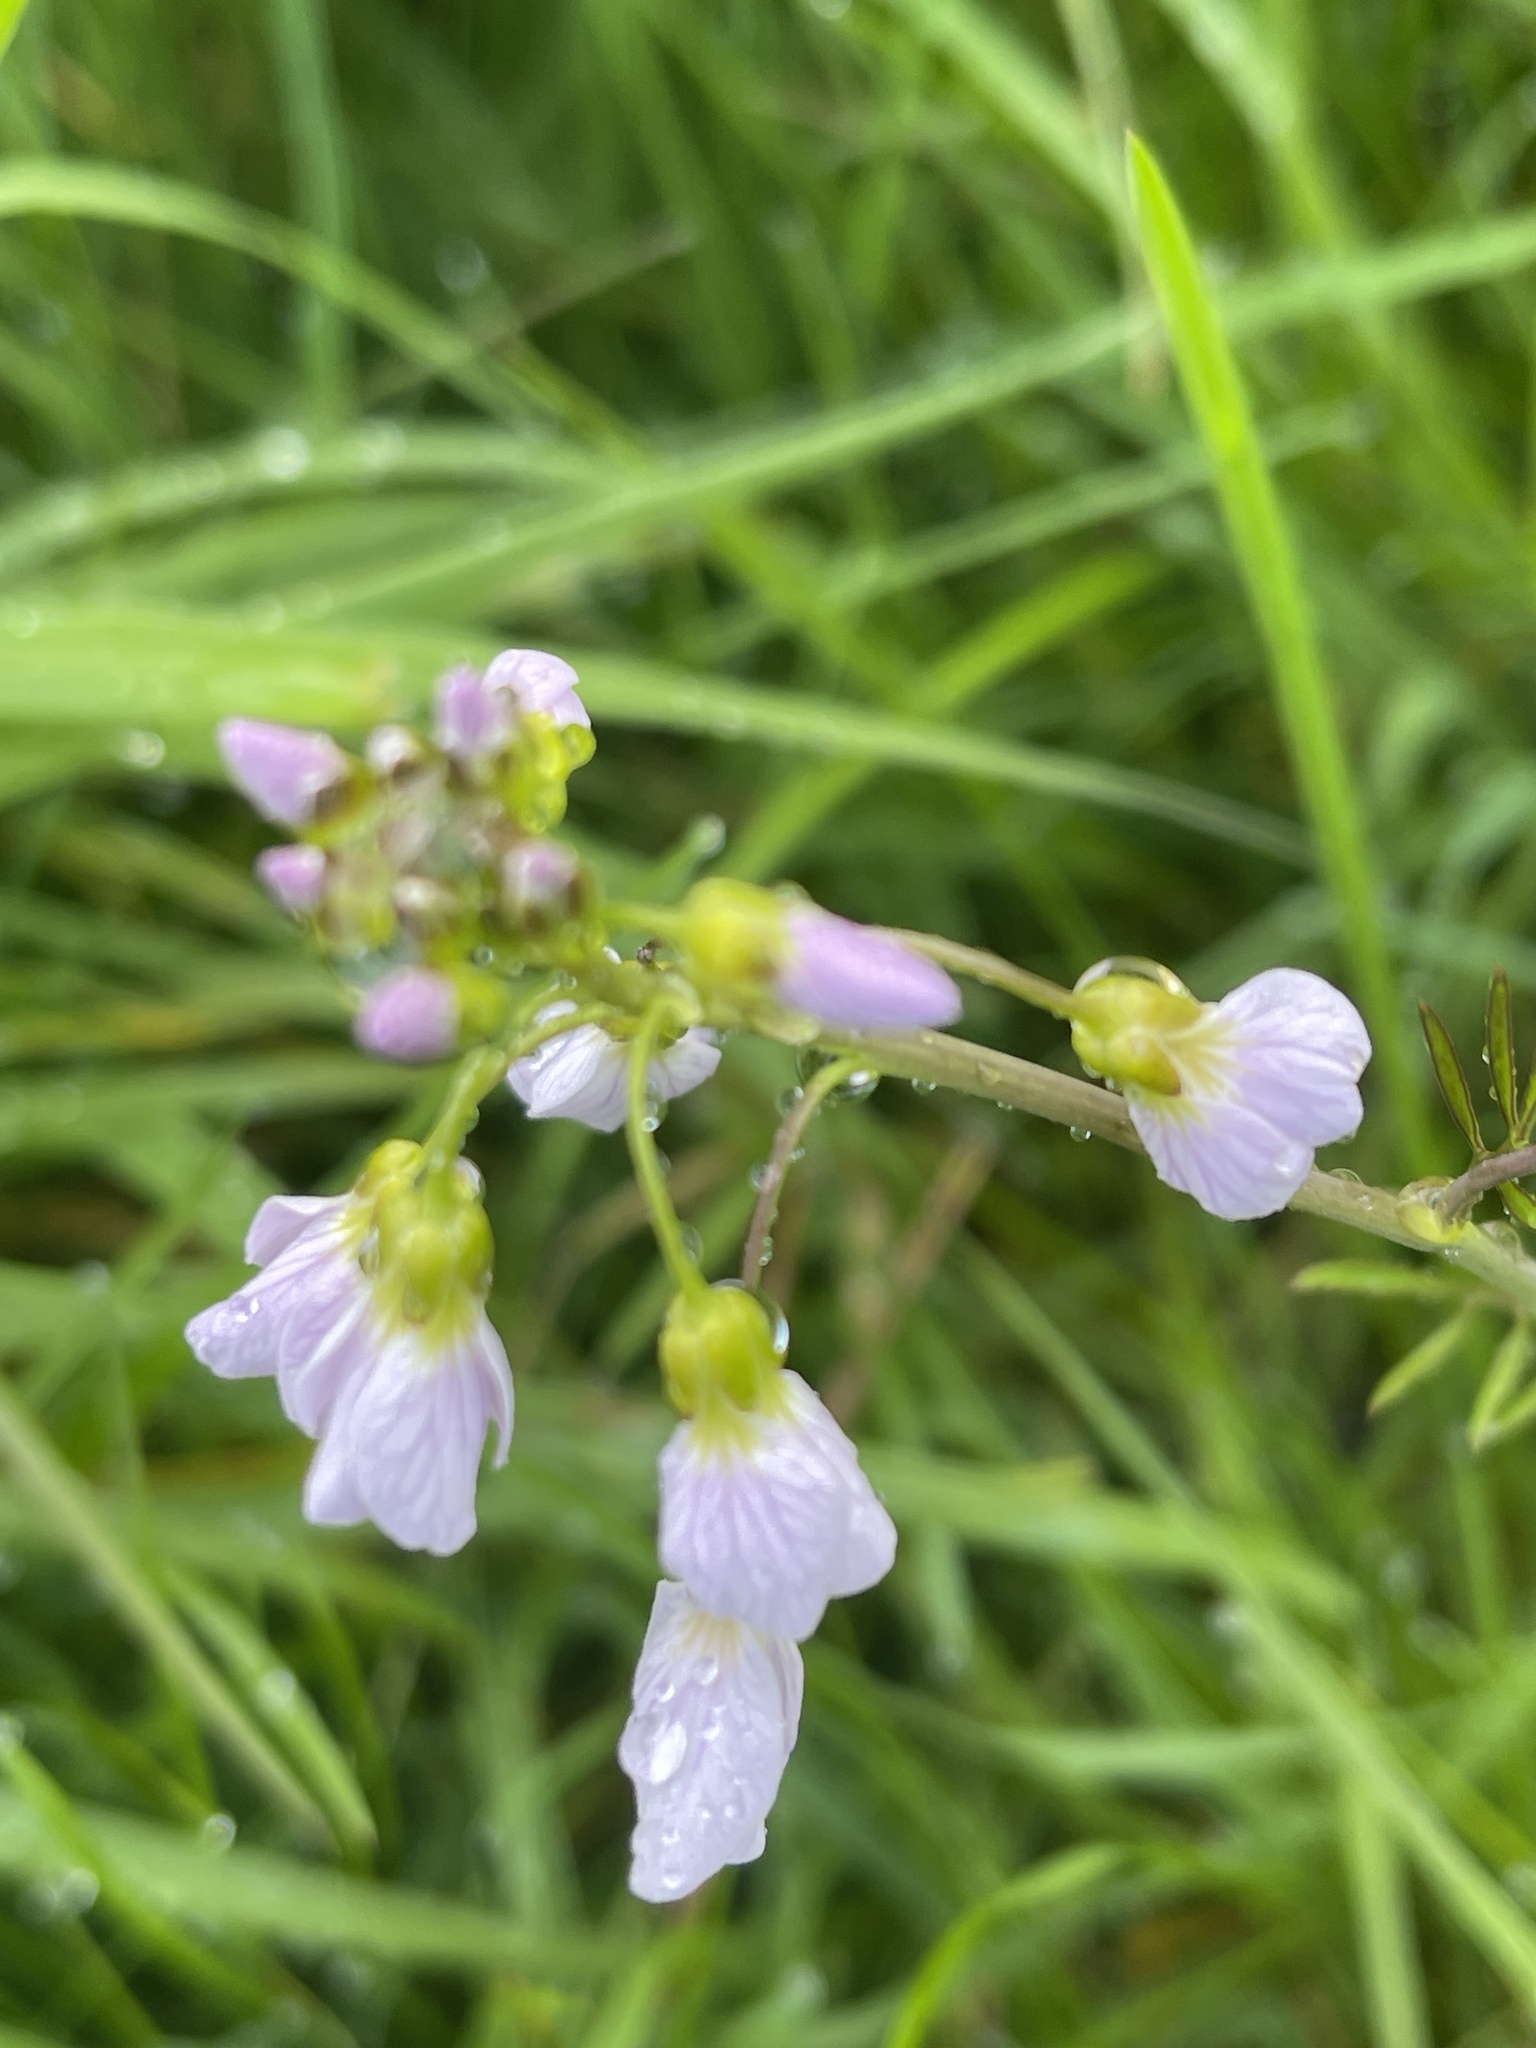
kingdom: Plantae
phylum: Tracheophyta
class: Magnoliopsida
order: Brassicales
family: Brassicaceae
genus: Cardamine
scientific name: Cardamine pratensis
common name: Cuckoo flower
